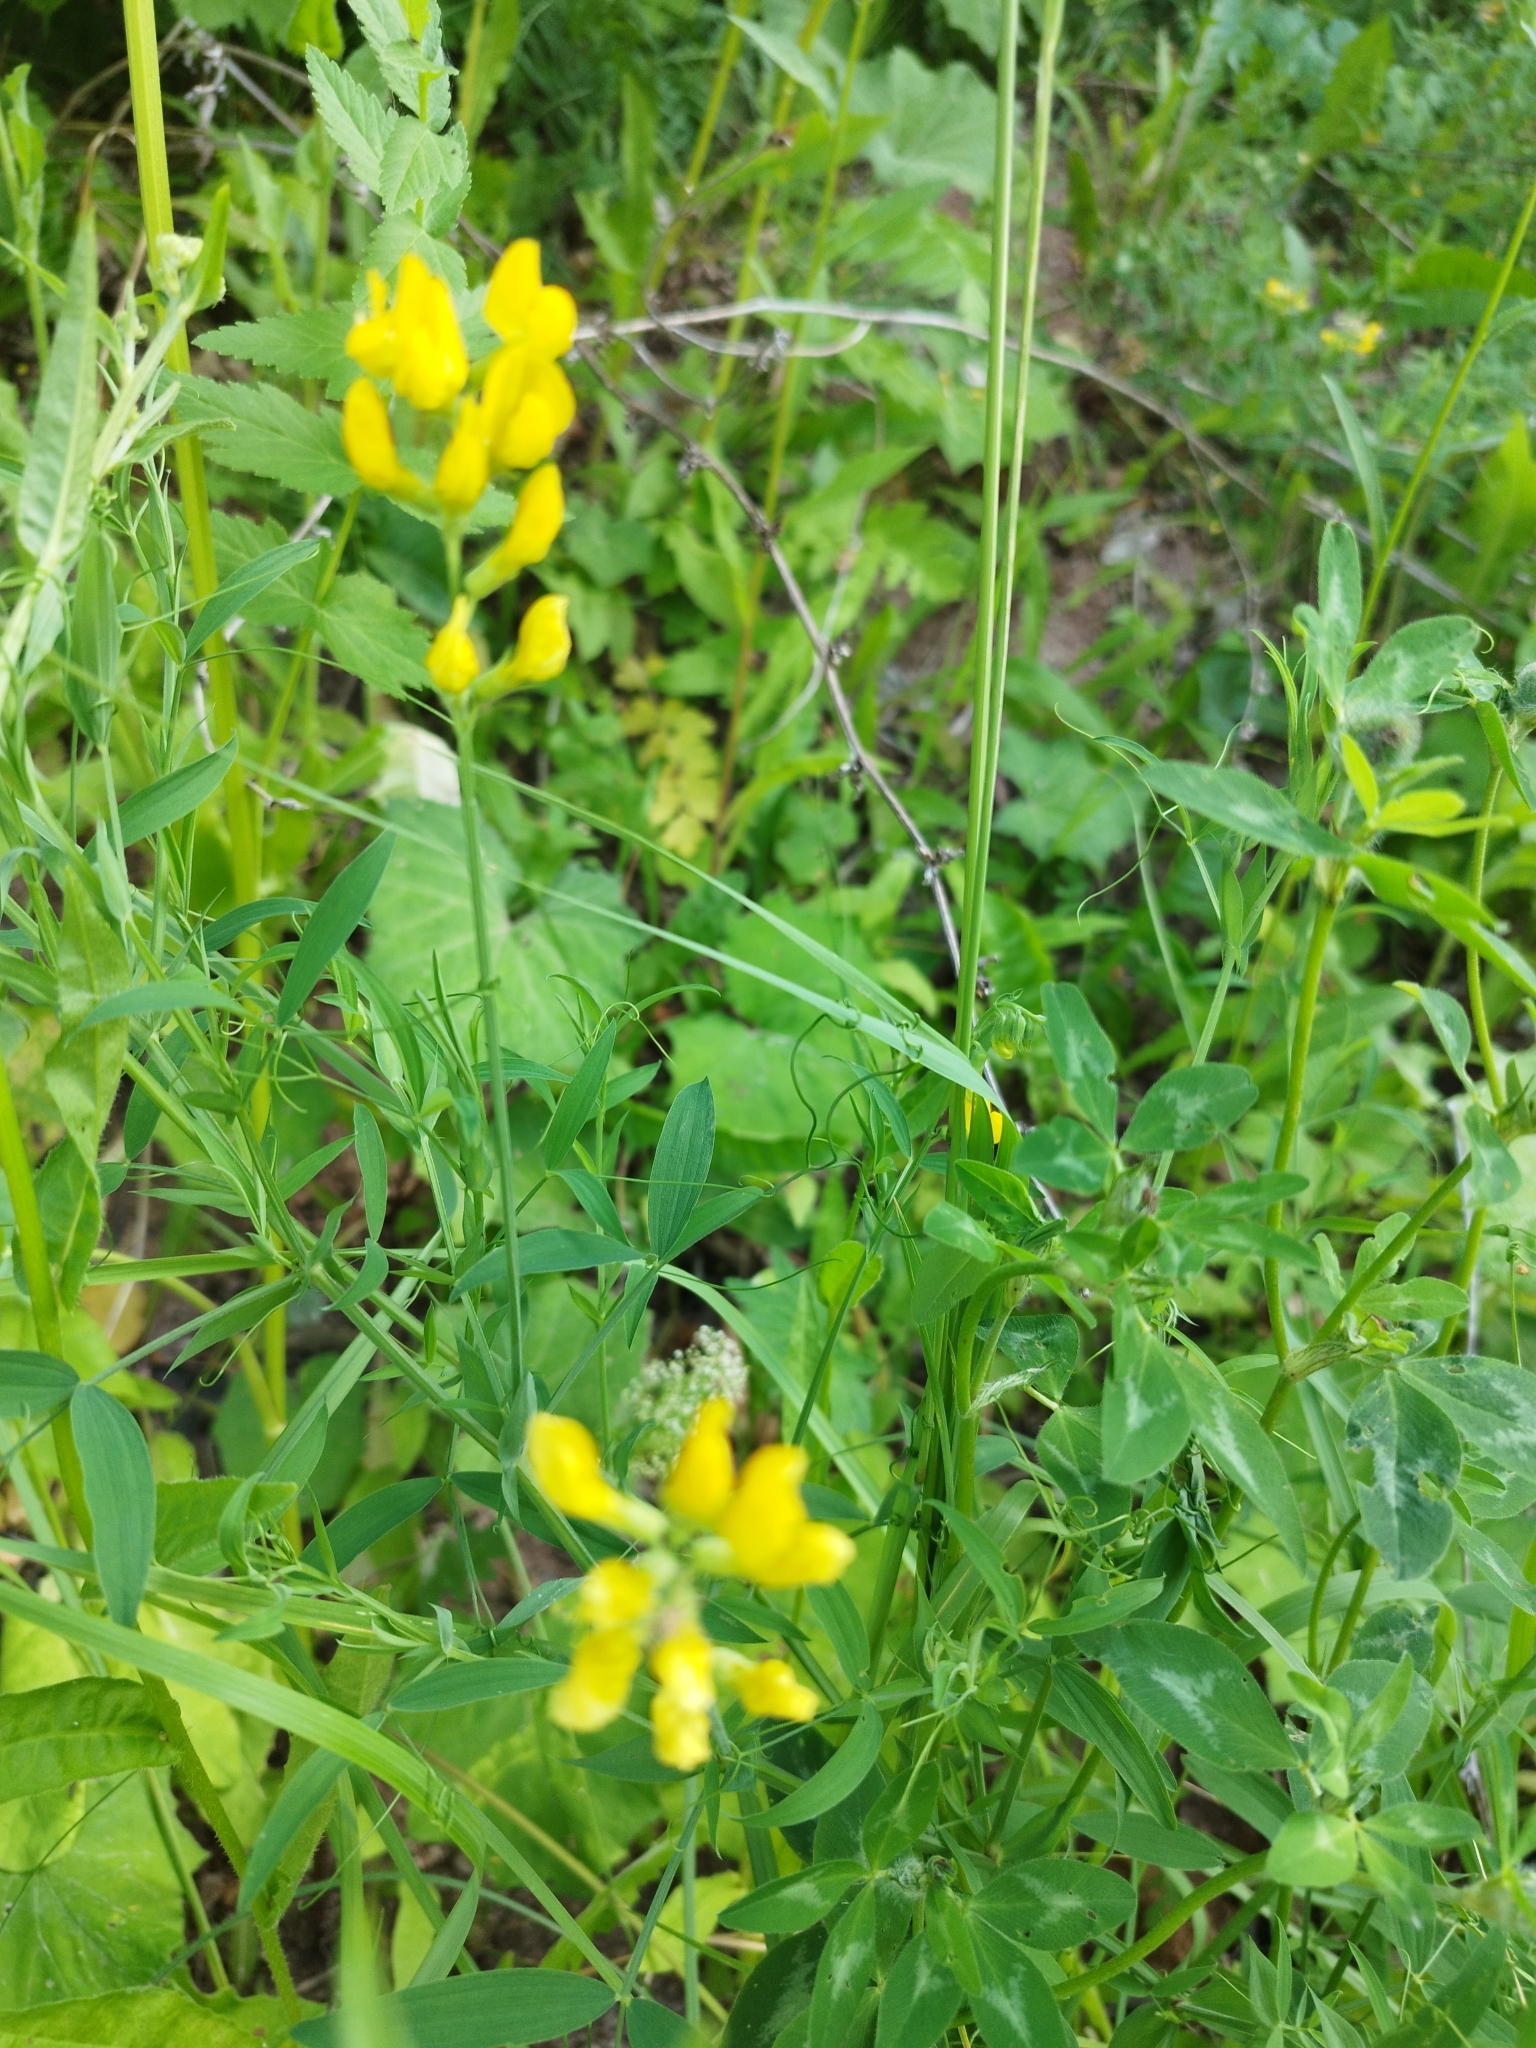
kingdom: Plantae
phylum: Tracheophyta
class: Magnoliopsida
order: Fabales
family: Fabaceae
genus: Lathyrus
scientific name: Lathyrus pratensis
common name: Meadow vetchling
